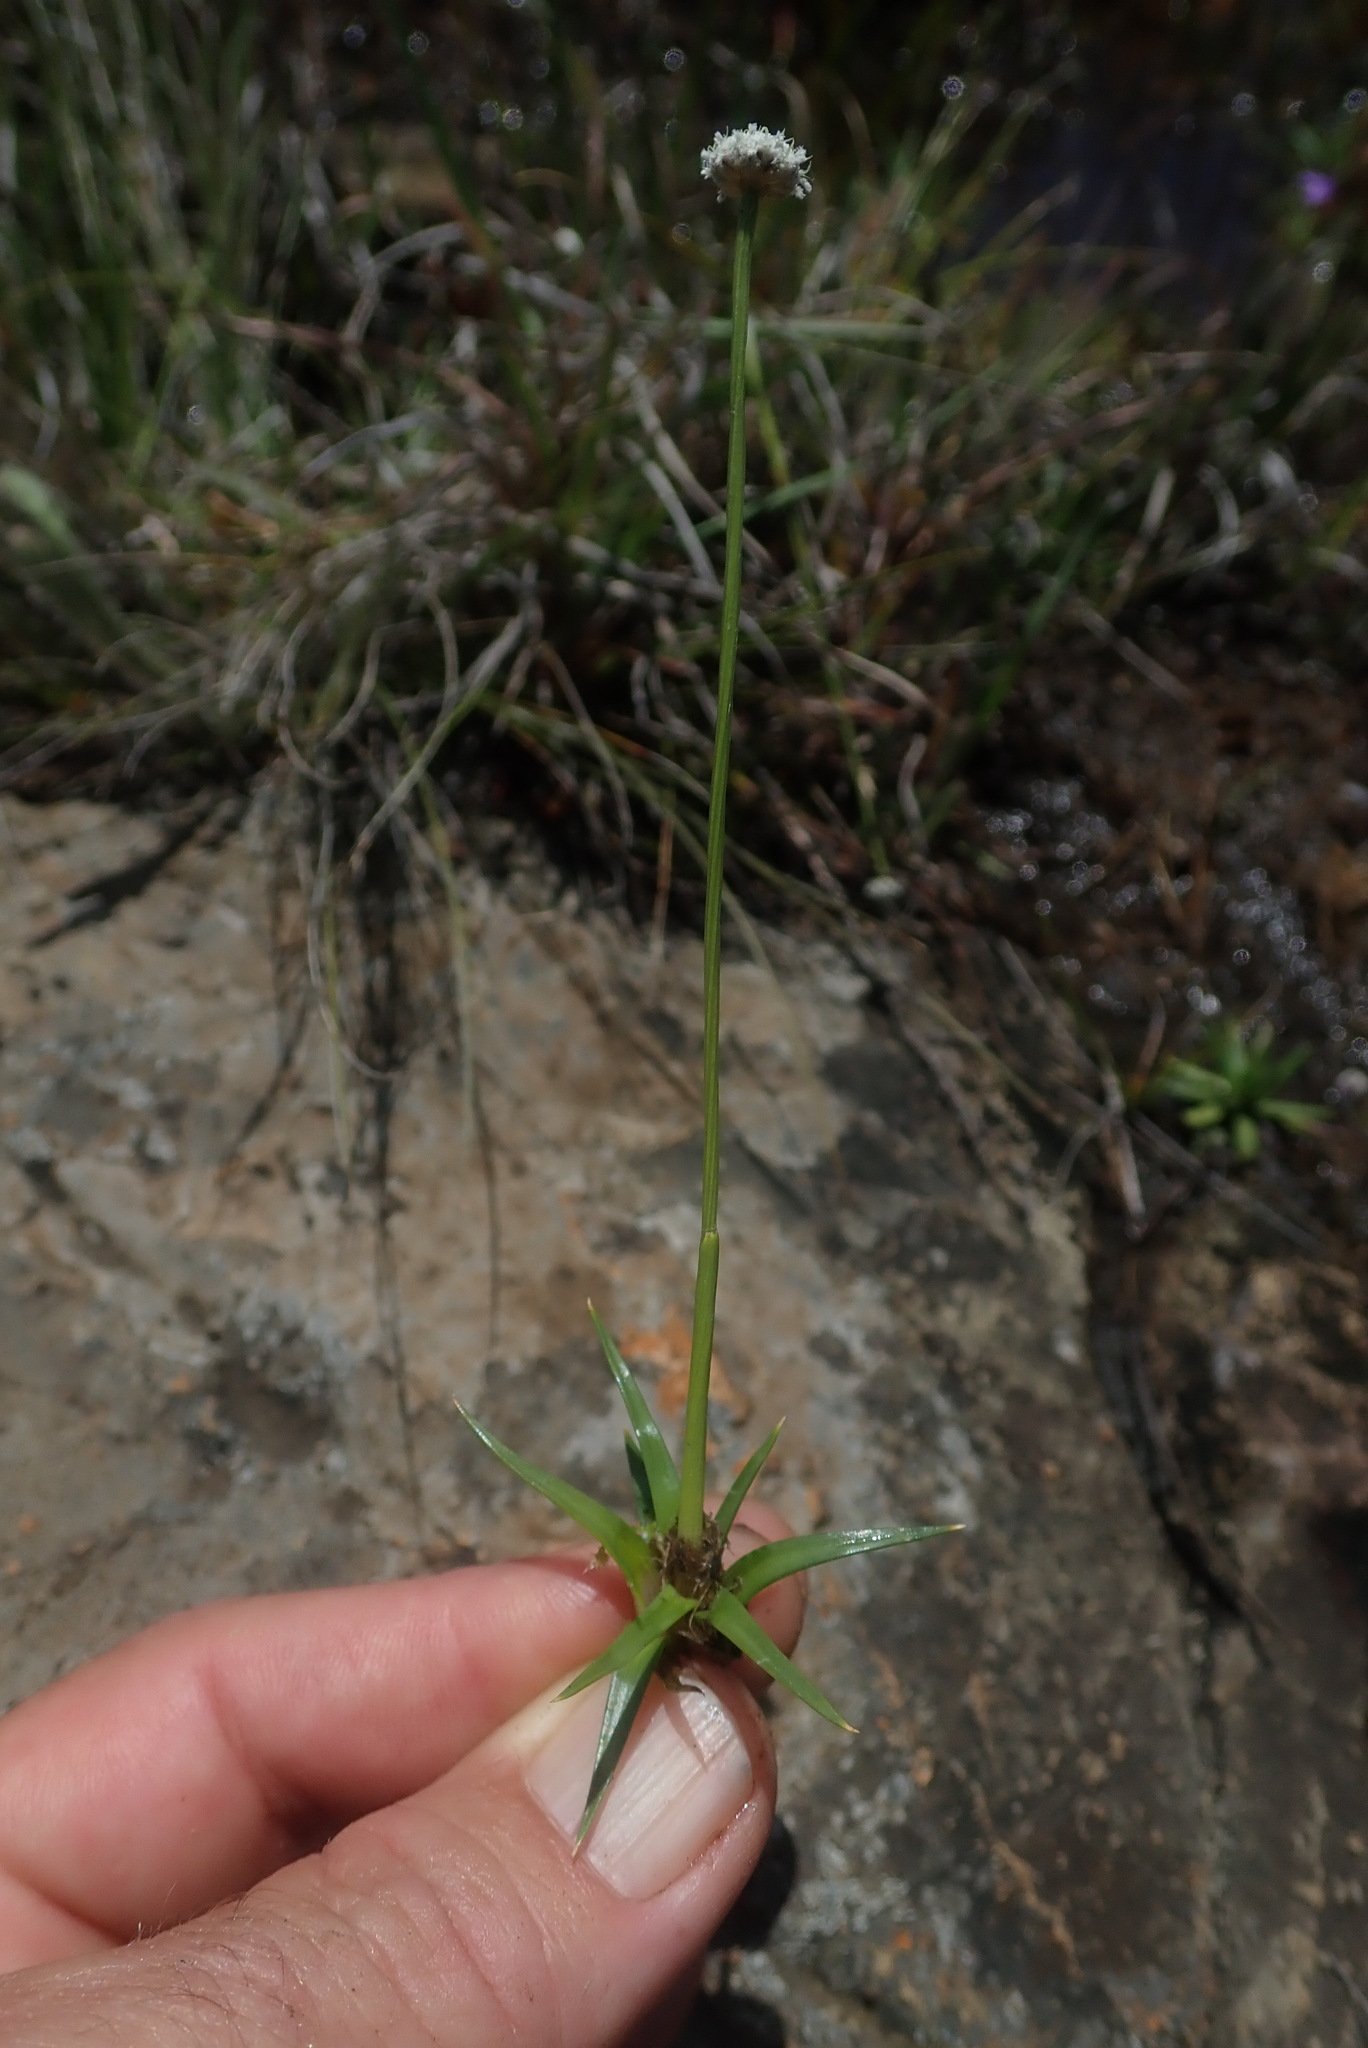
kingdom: Plantae
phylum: Tracheophyta
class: Liliopsida
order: Poales
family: Eriocaulaceae
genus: Eriocaulon
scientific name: Eriocaulon sonderianum
